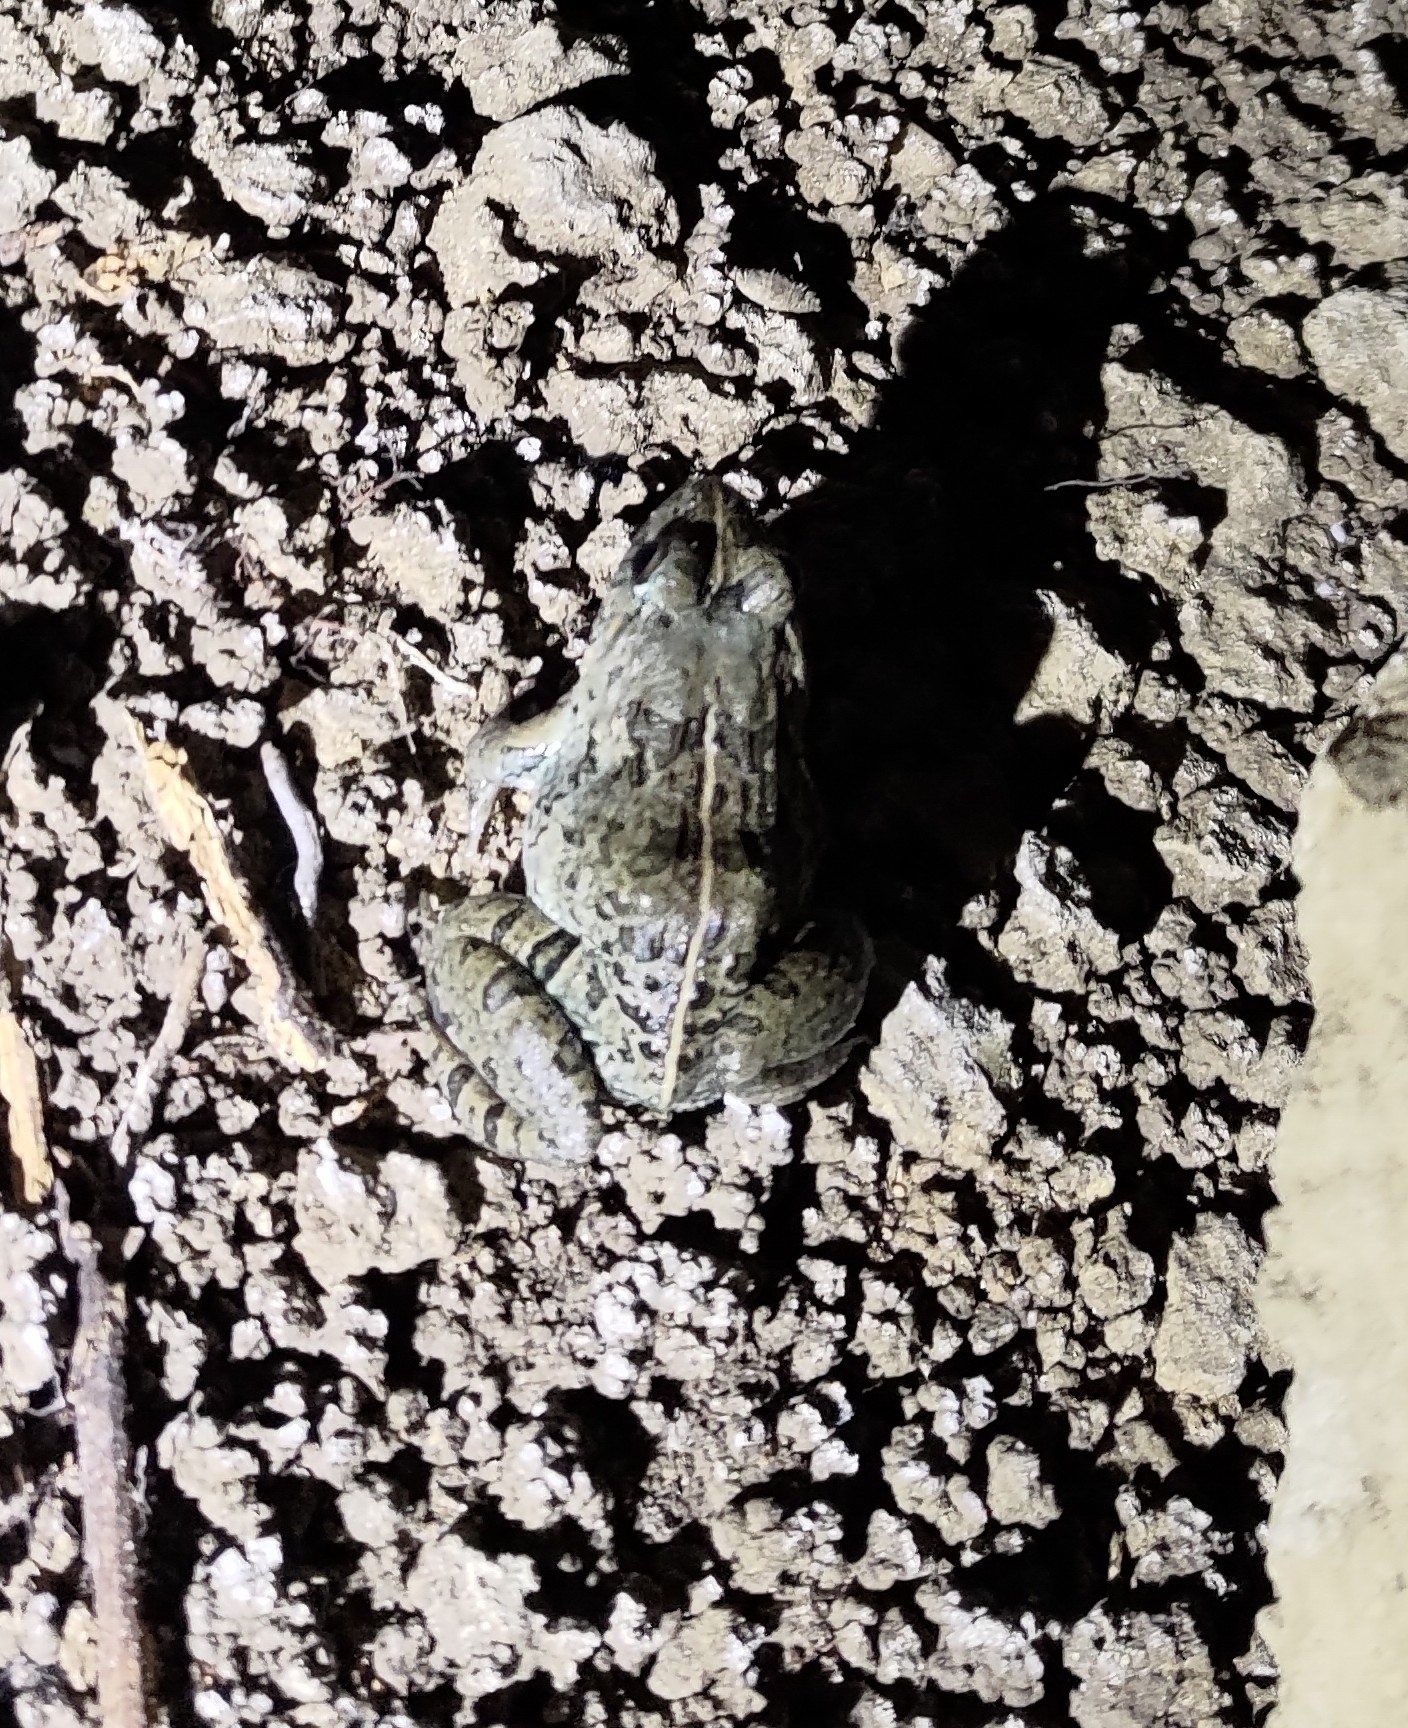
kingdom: Animalia
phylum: Chordata
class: Amphibia
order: Anura
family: Dicroglossidae
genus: Fejervarya
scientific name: Fejervarya limnocharis
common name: Asian grass frog/common pond frog/field frog/grass frog/indian rice frog
